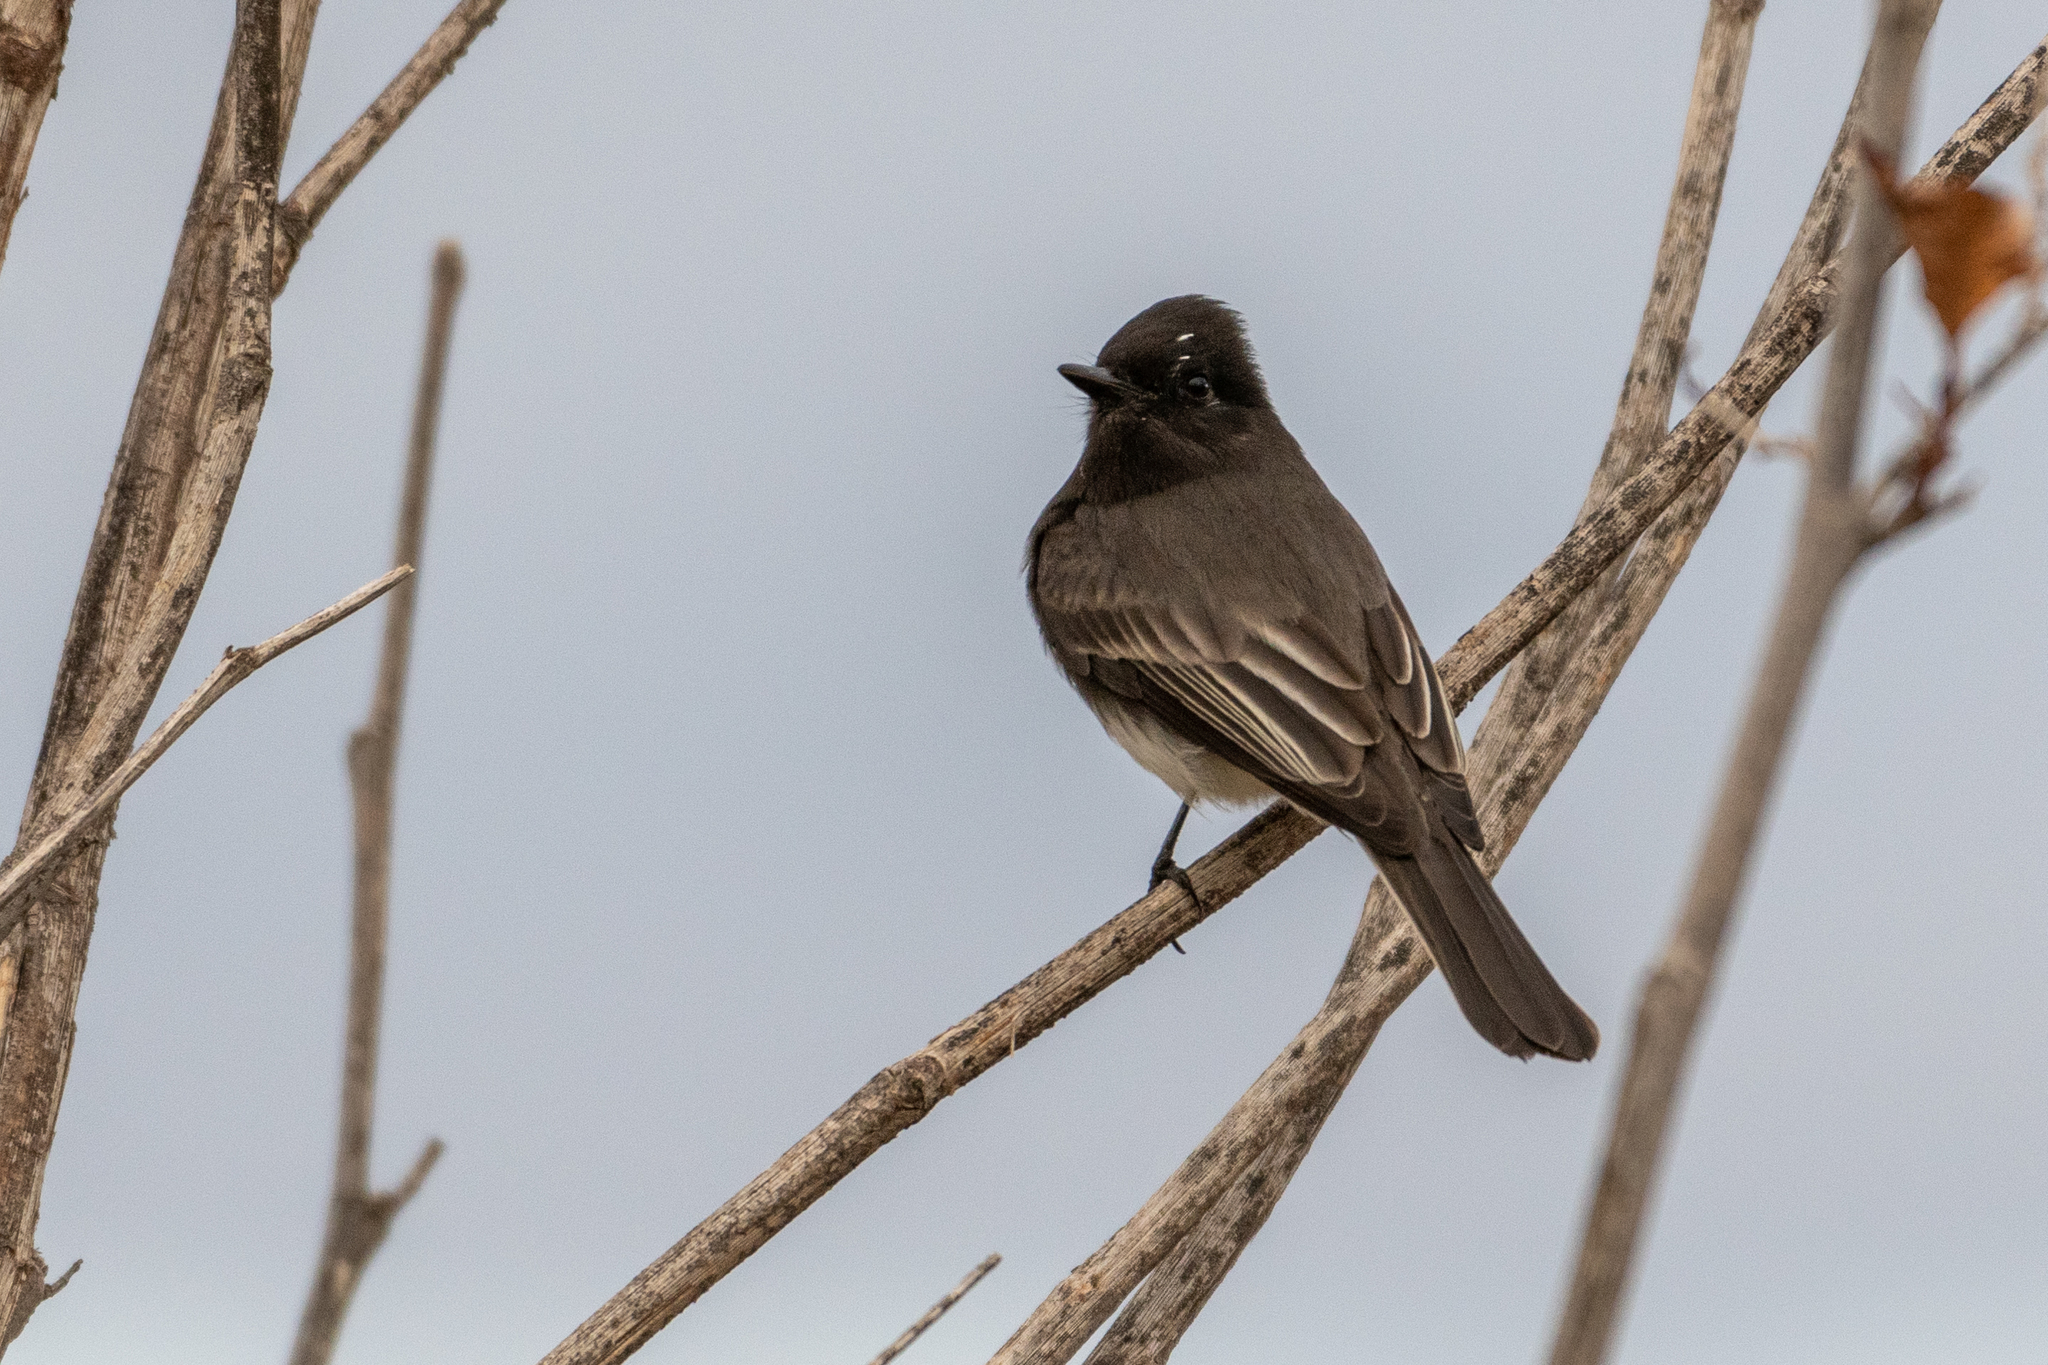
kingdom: Animalia
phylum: Chordata
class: Aves
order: Passeriformes
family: Tyrannidae
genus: Sayornis
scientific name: Sayornis nigricans
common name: Black phoebe
